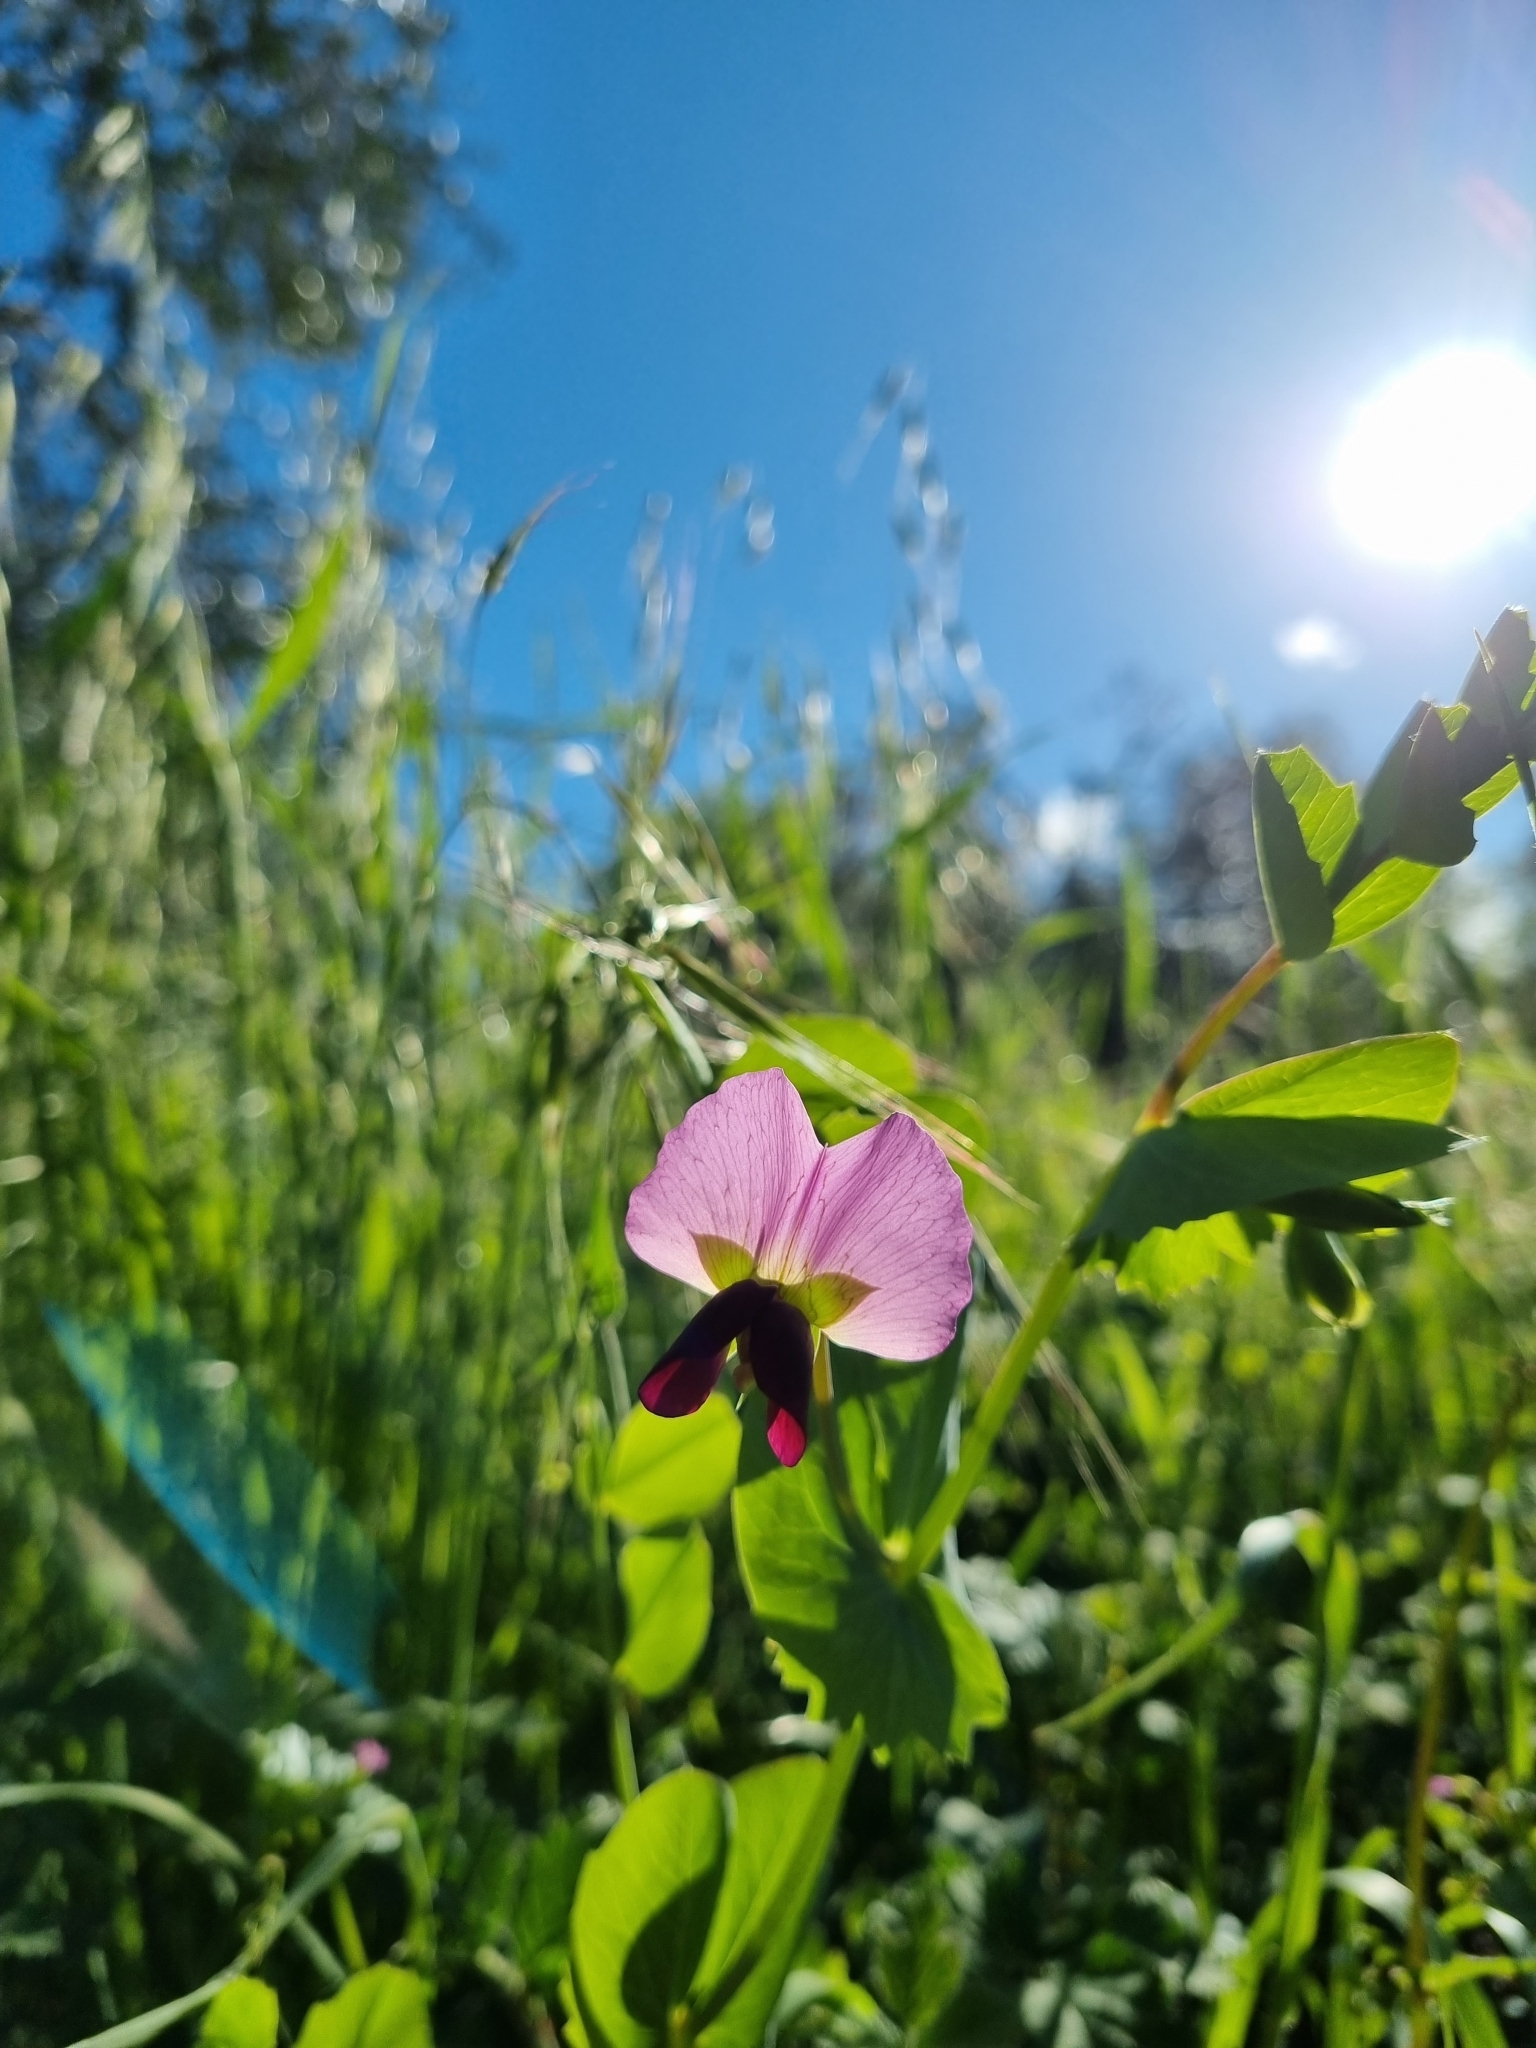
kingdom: Plantae
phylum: Tracheophyta
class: Magnoliopsida
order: Fabales
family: Fabaceae
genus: Lathyrus
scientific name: Lathyrus oleraceus
